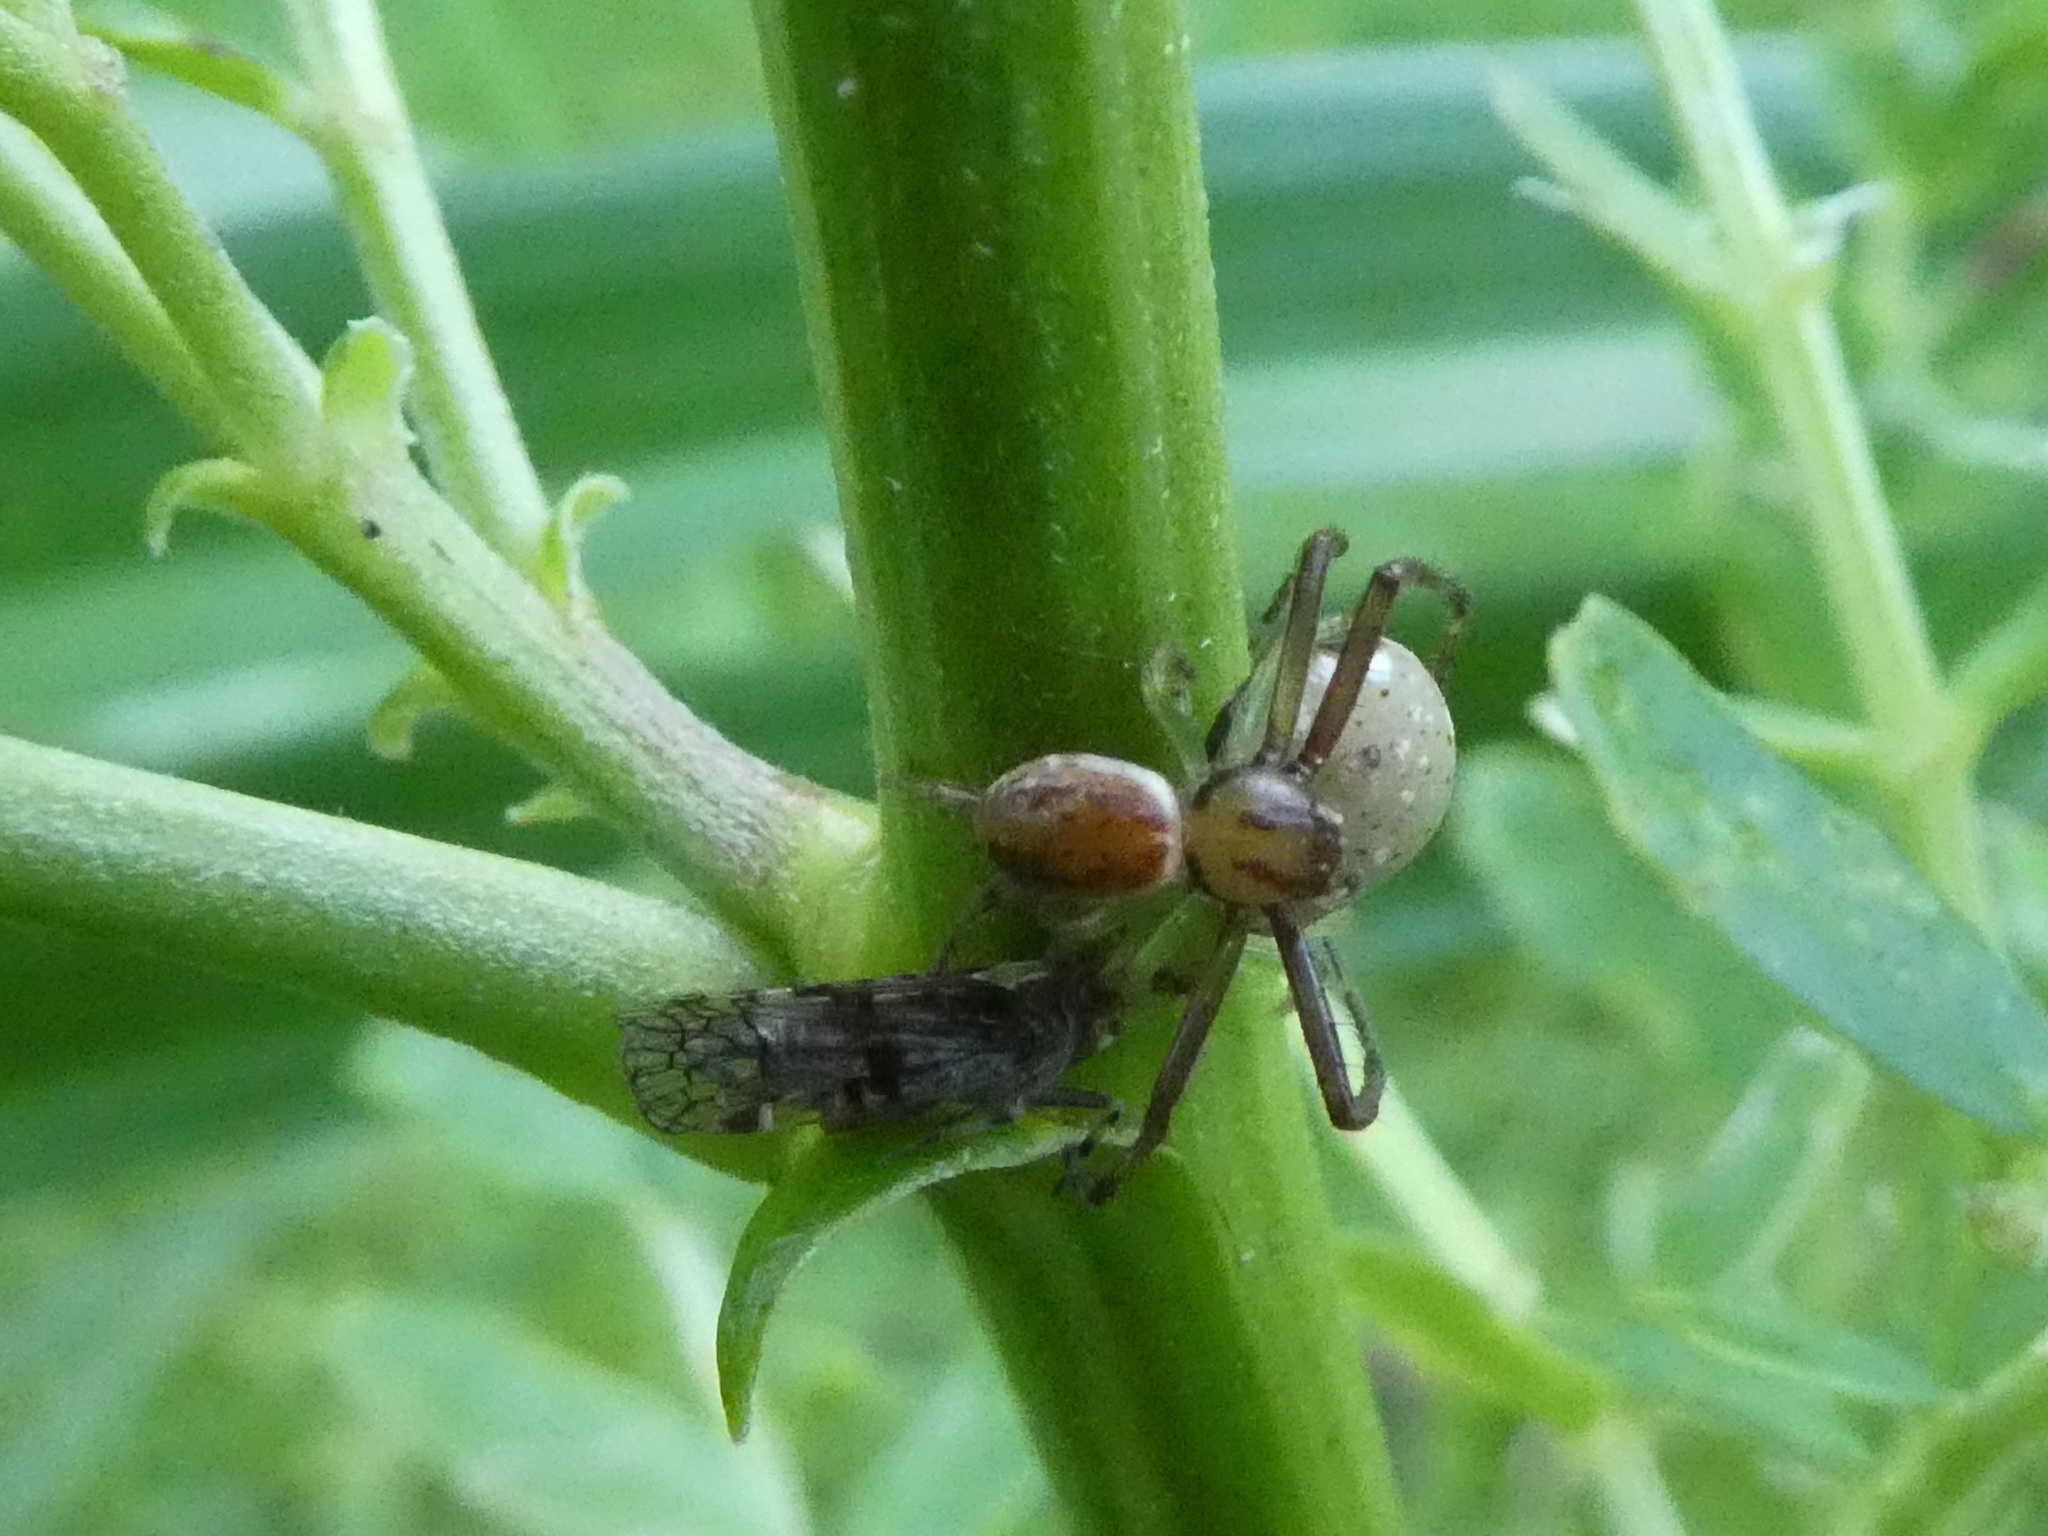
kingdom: Animalia
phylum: Arthropoda
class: Arachnida
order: Araneae
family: Thomisidae
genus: Diaea
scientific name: Diaea ambara
